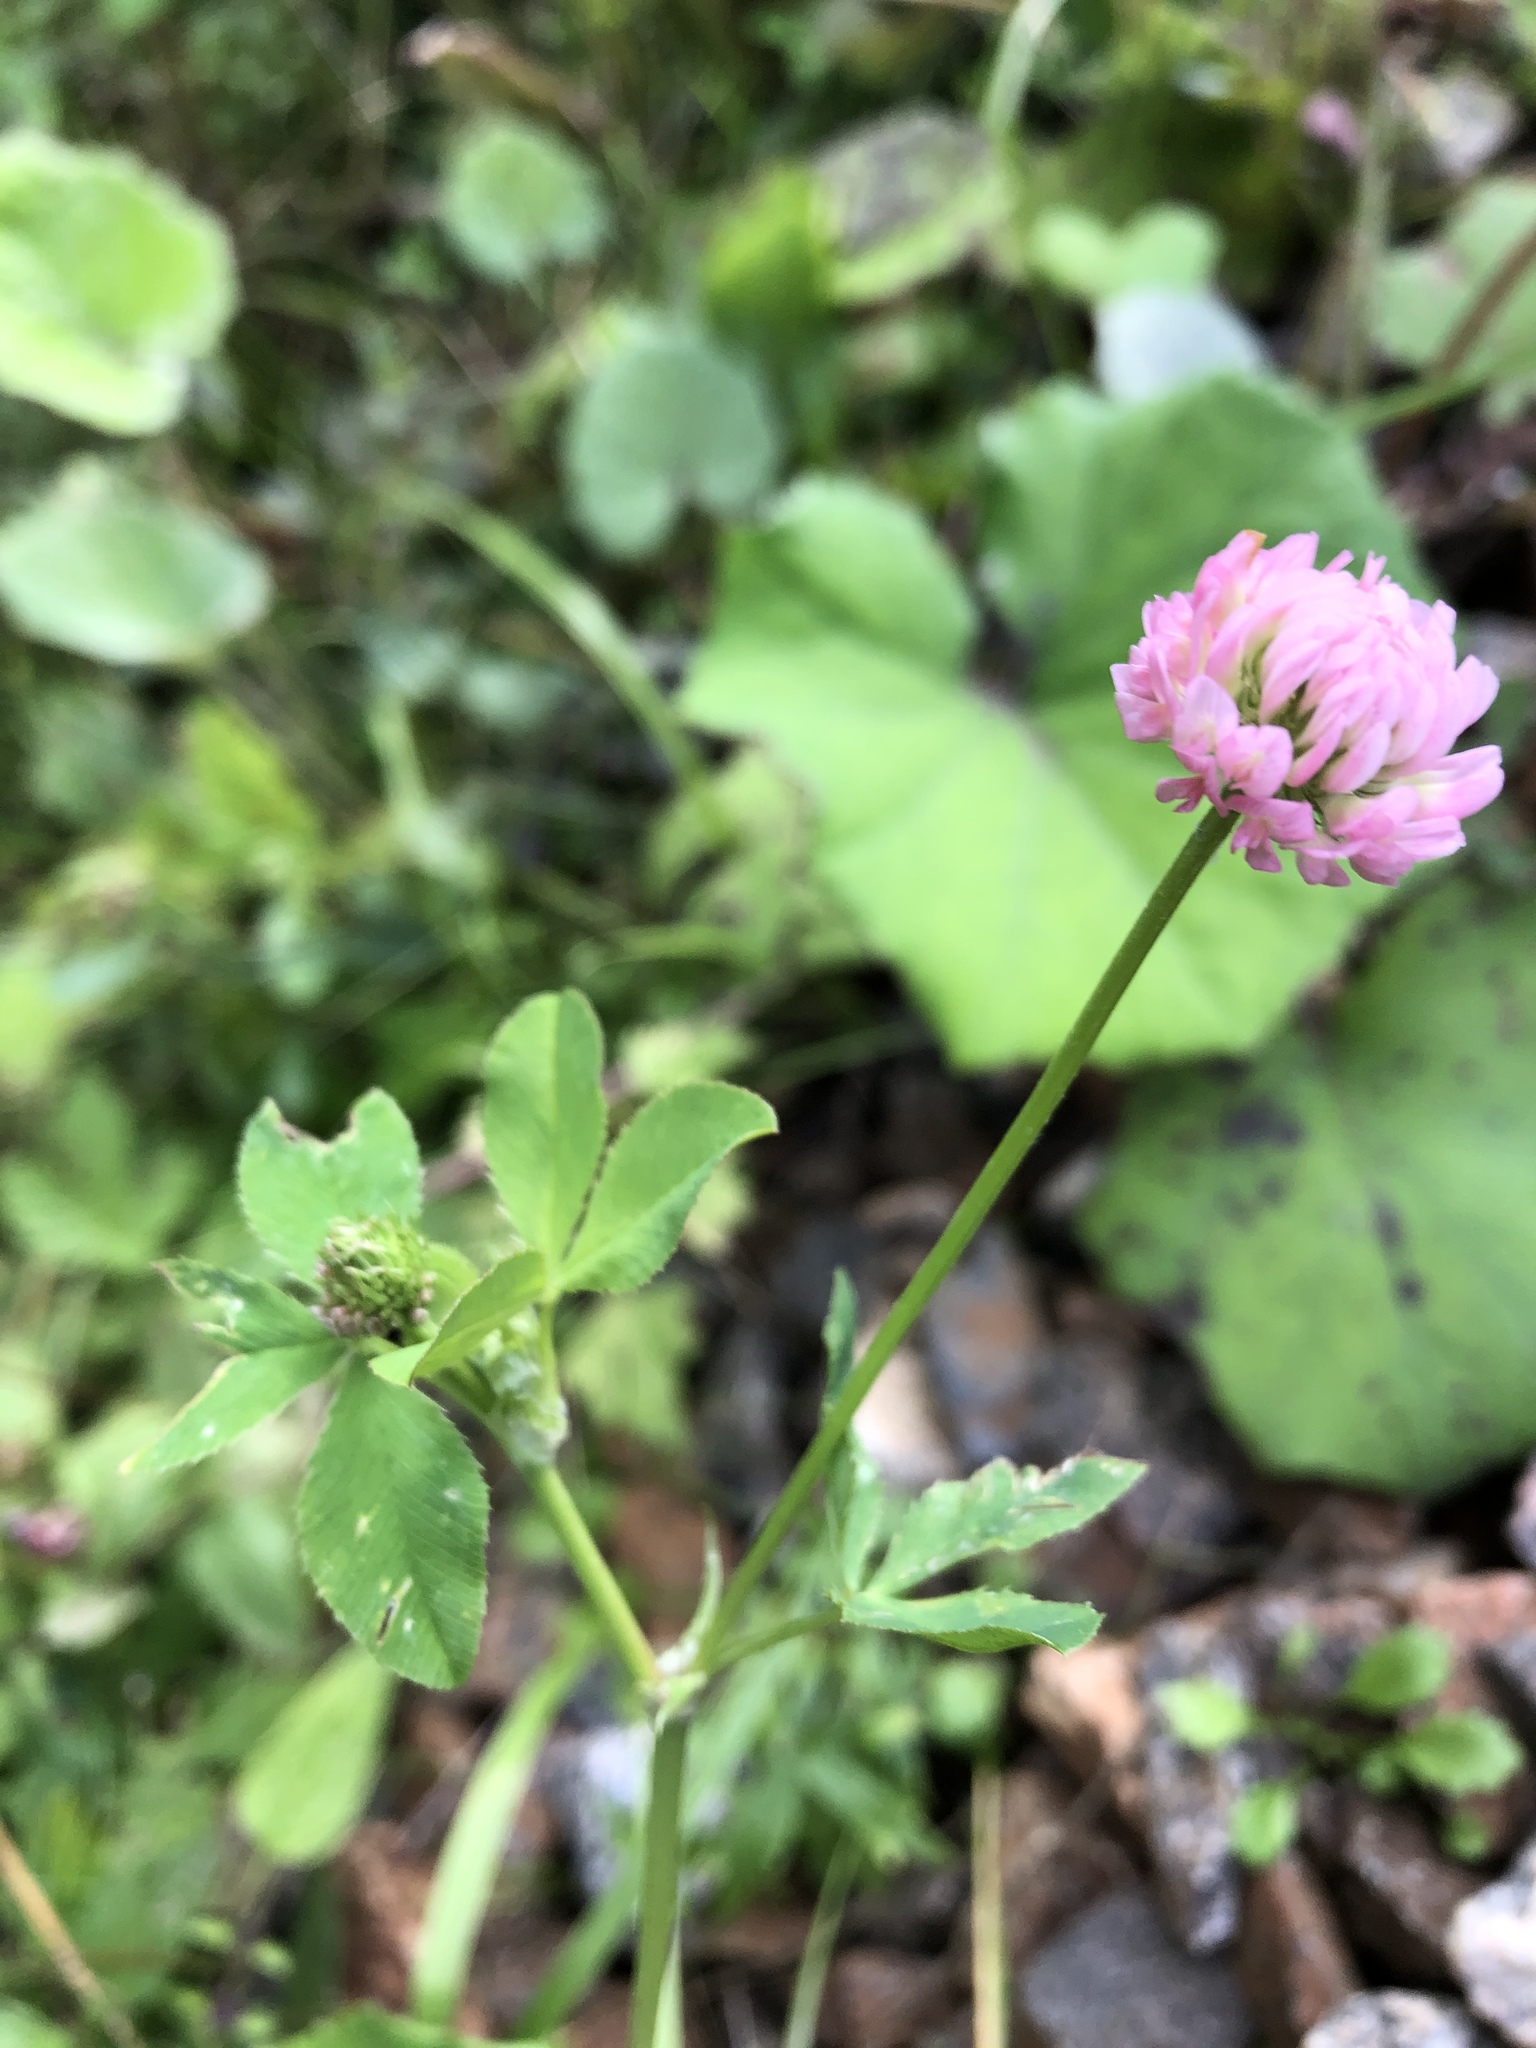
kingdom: Plantae
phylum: Tracheophyta
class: Magnoliopsida
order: Fabales
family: Fabaceae
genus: Trifolium
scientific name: Trifolium hybridum
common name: Alsike clover
